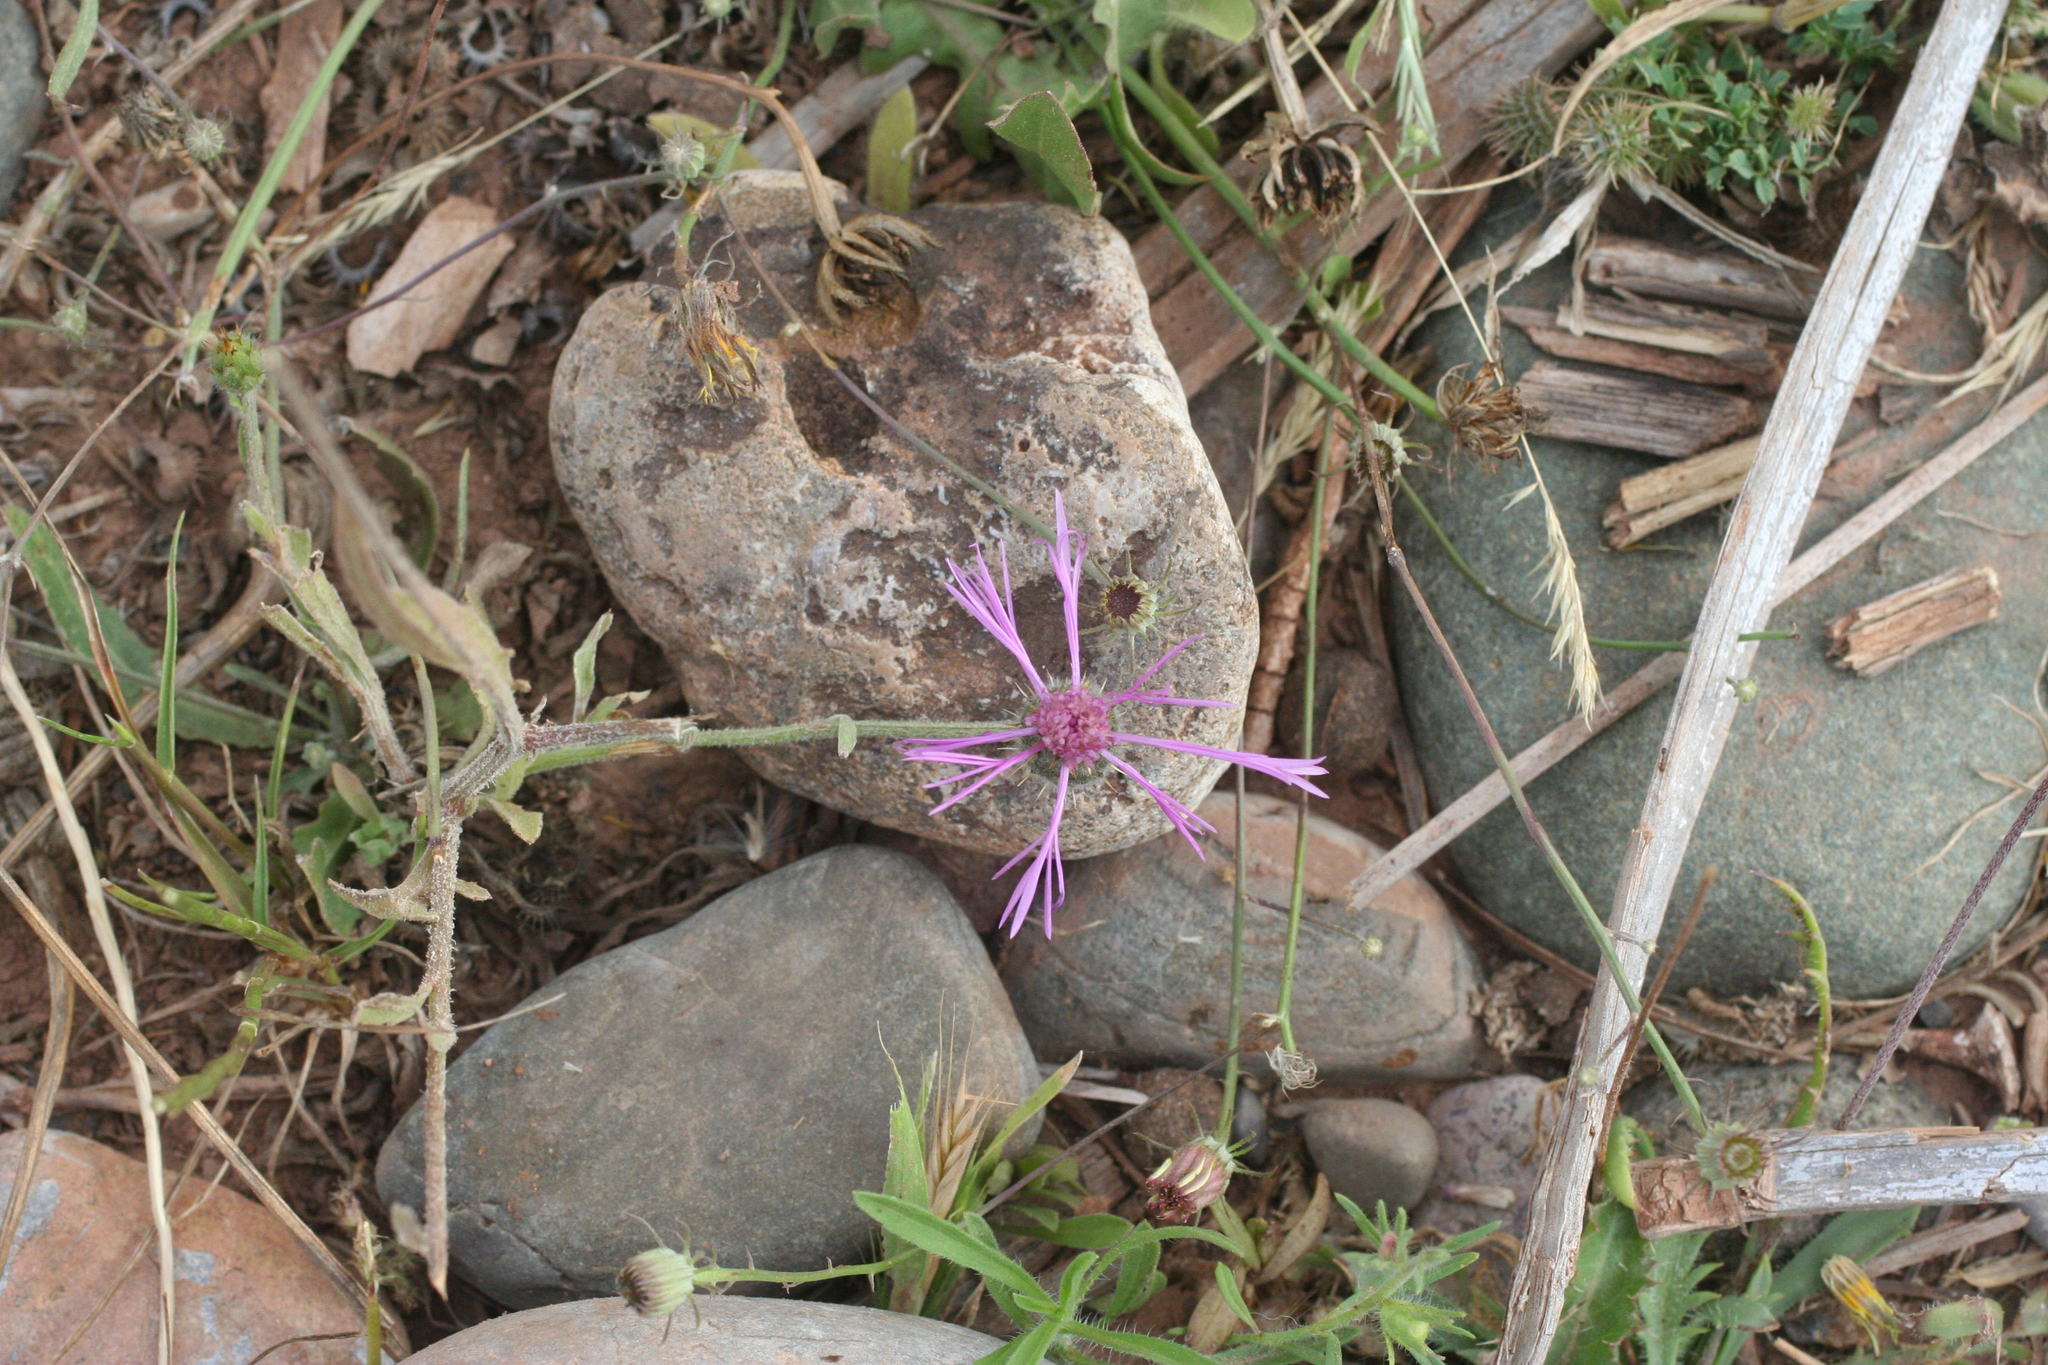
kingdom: Plantae
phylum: Tracheophyta
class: Magnoliopsida
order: Asterales
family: Asteraceae
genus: Volutaria
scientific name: Volutaria muricata
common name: Morocco knapweed
